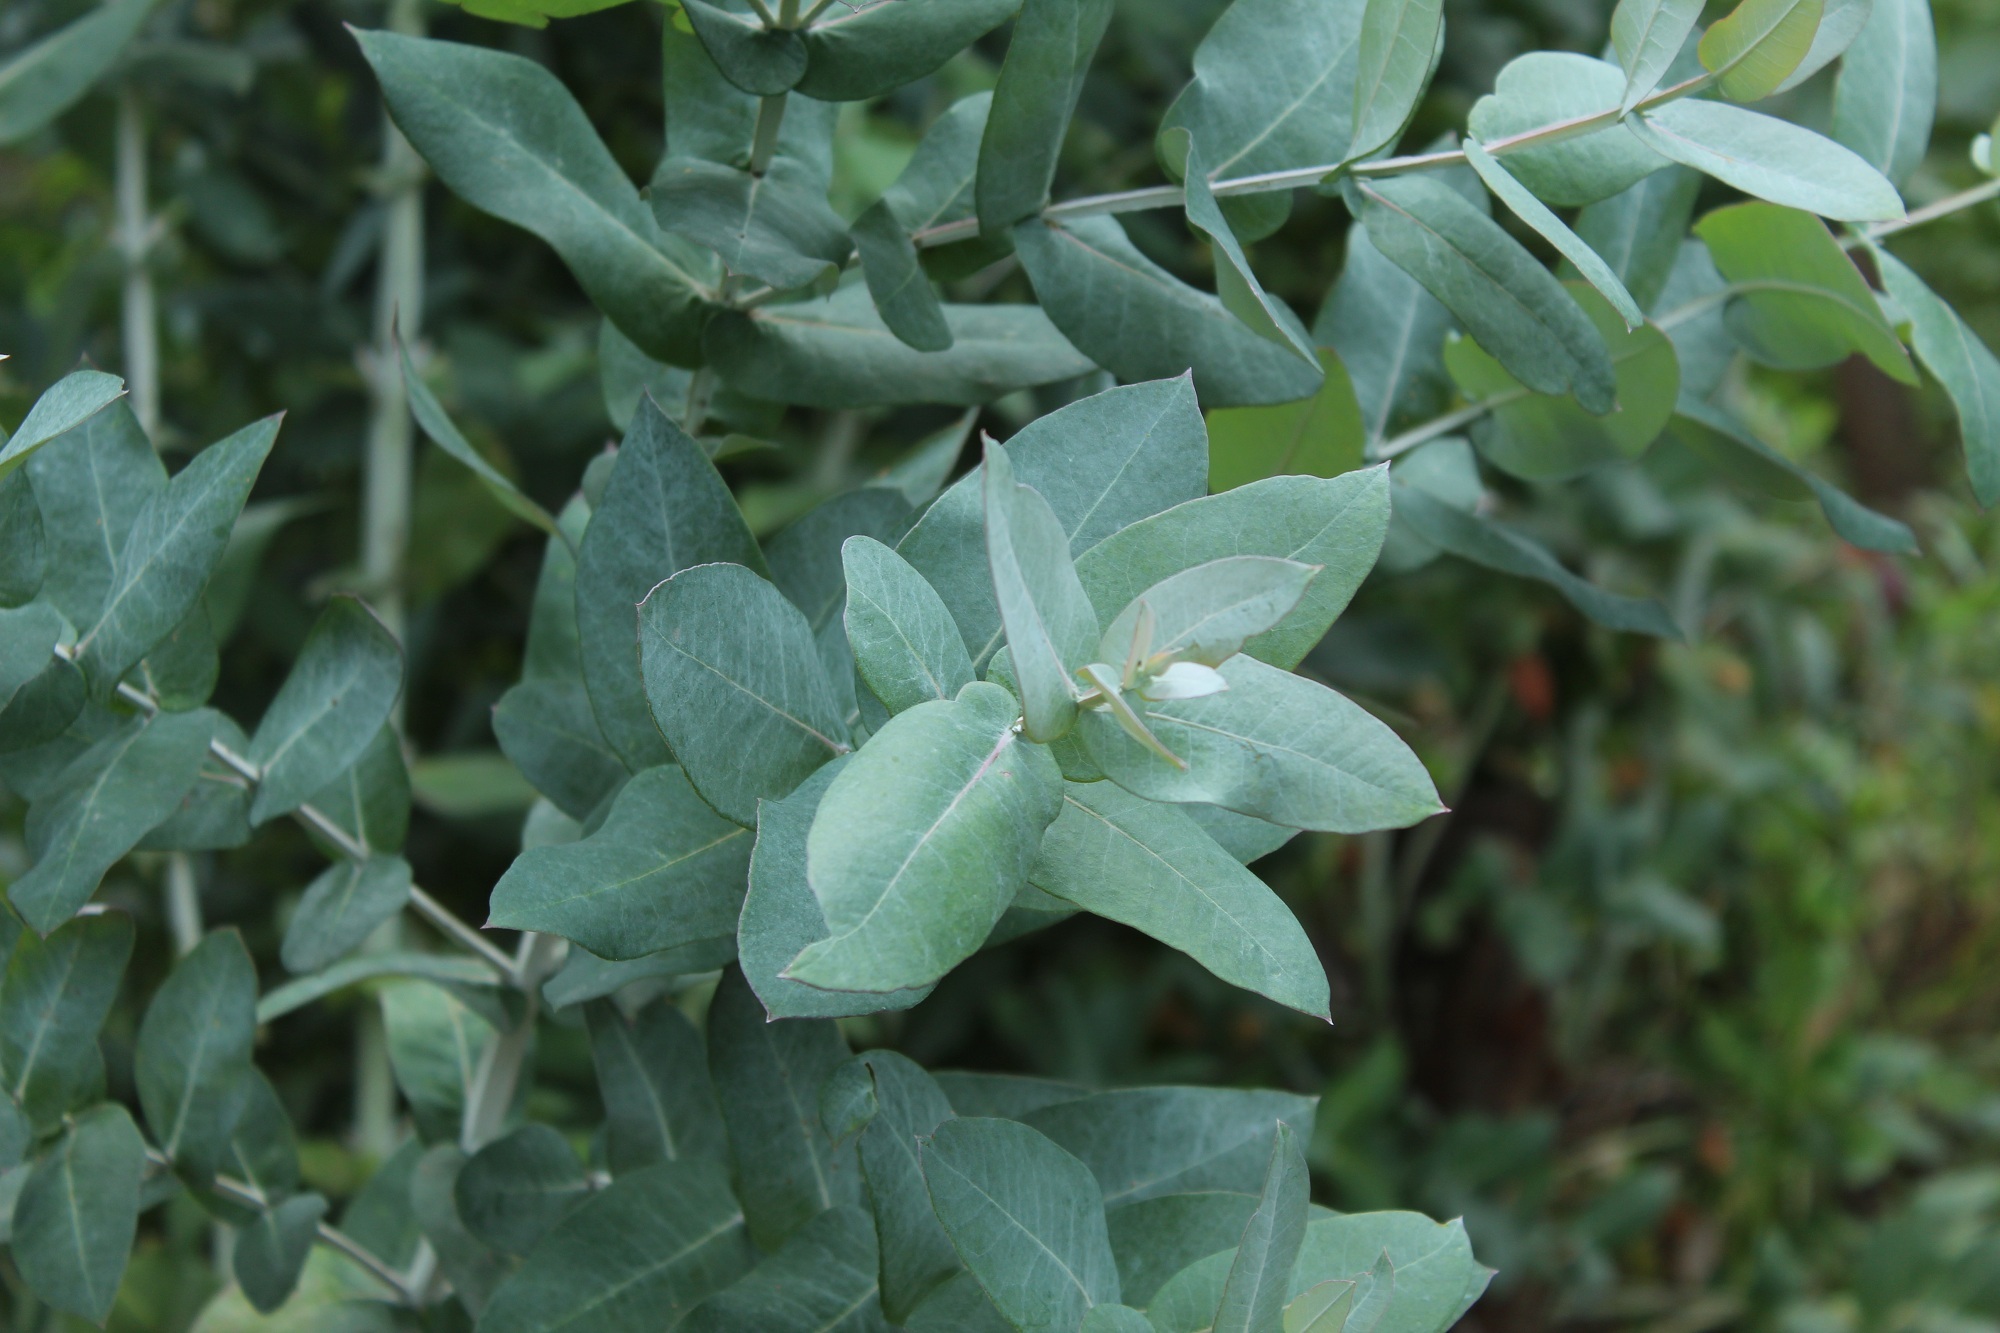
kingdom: Plantae
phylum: Tracheophyta
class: Magnoliopsida
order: Myrtales
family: Myrtaceae
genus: Eucalyptus
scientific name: Eucalyptus globulus
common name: Southern blue-gum
